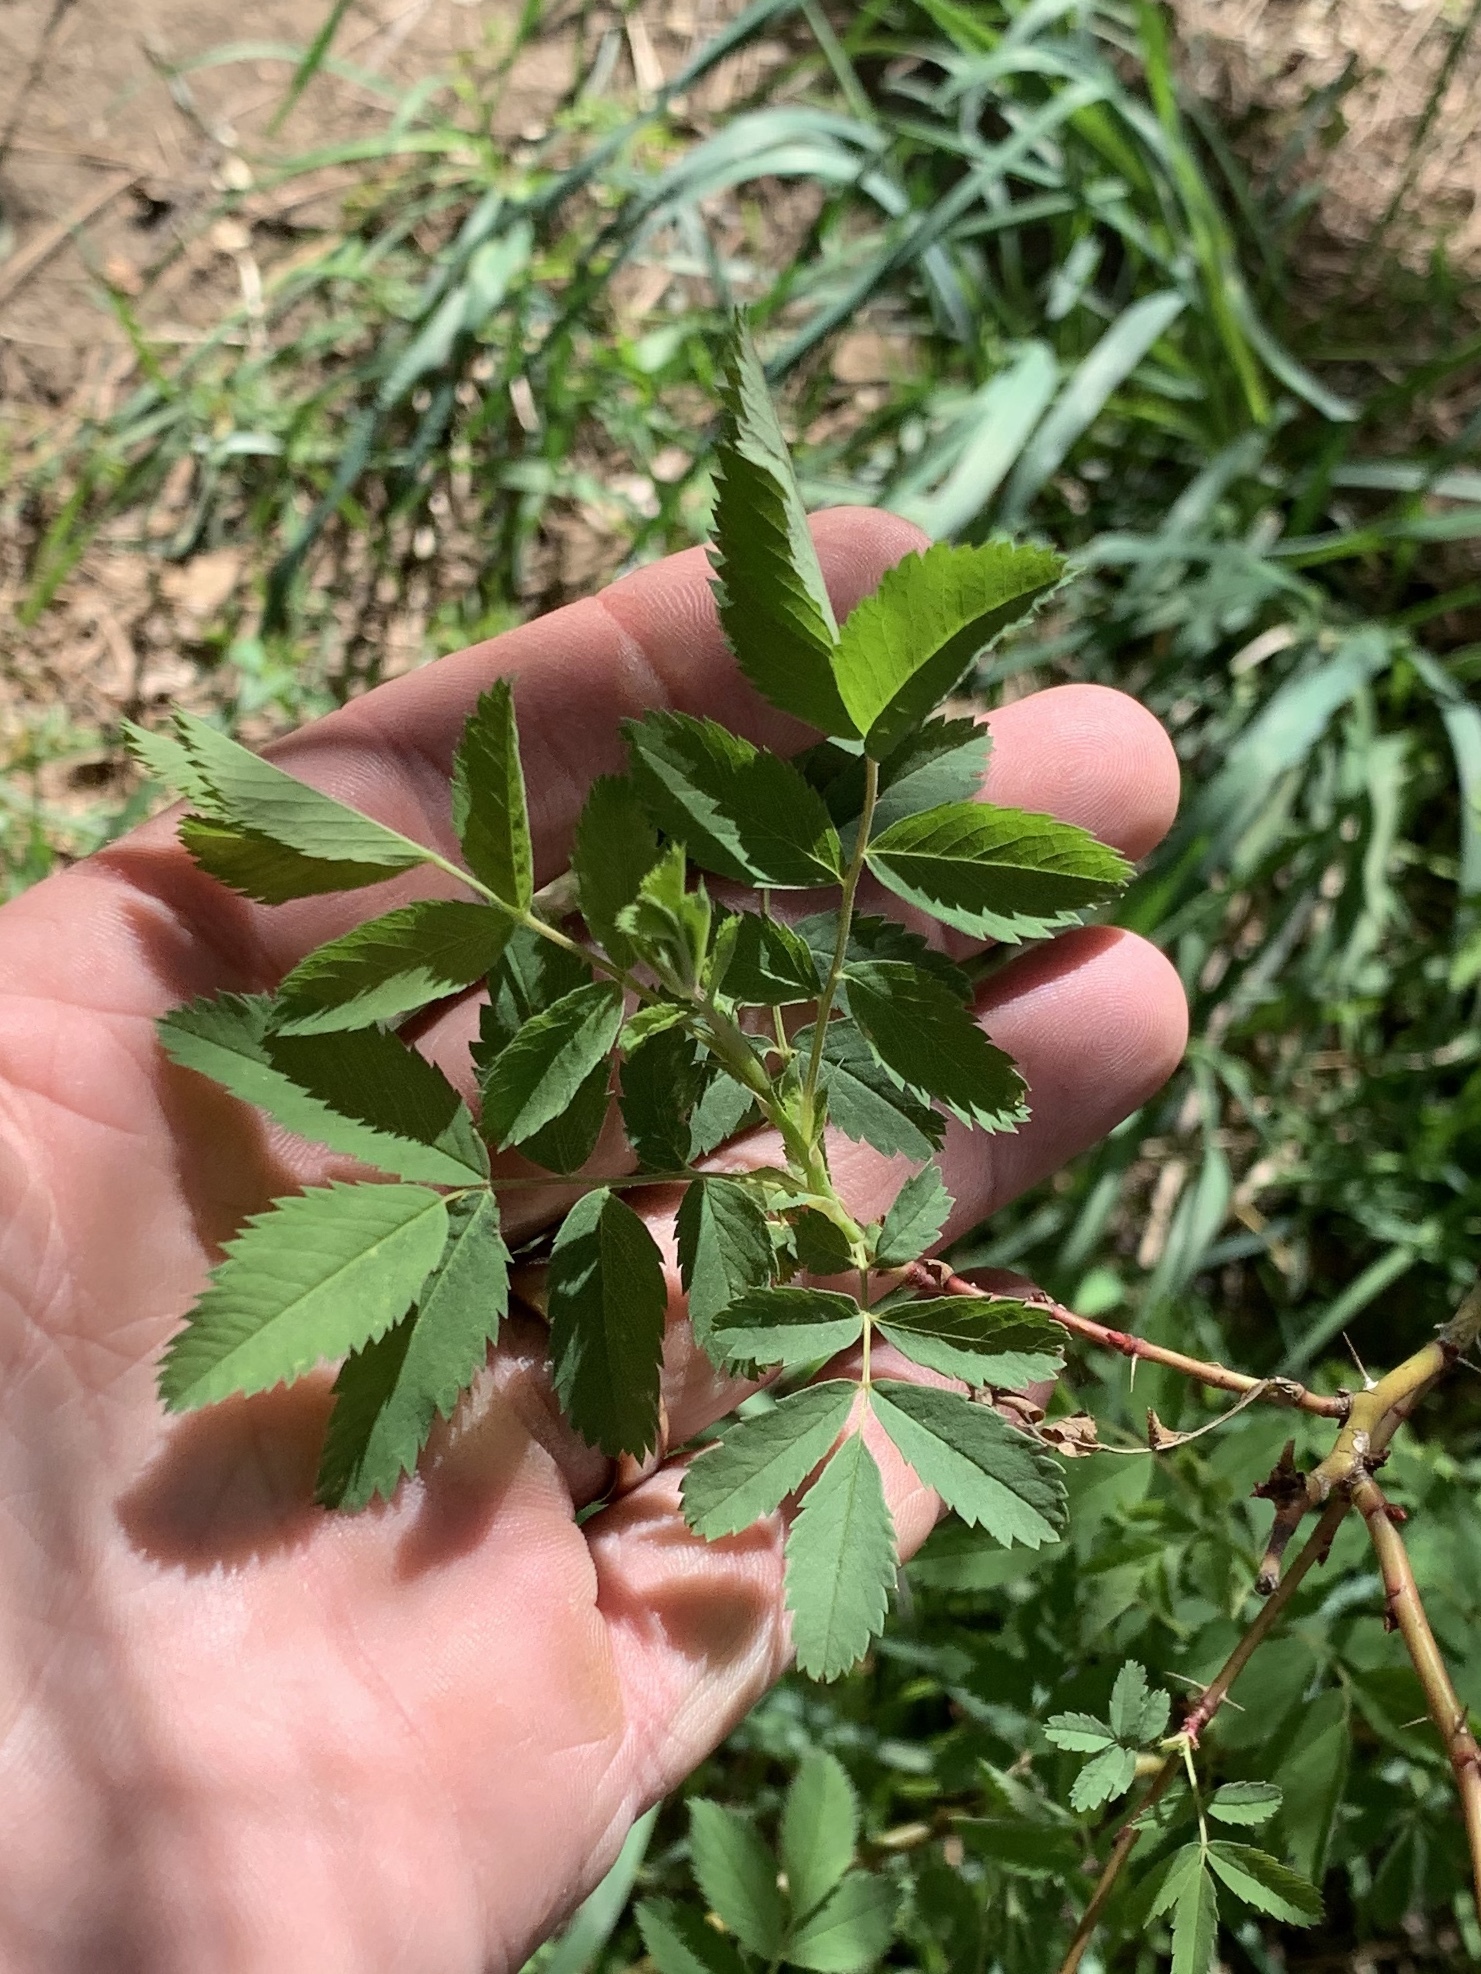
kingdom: Plantae
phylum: Tracheophyta
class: Magnoliopsida
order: Rosales
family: Rosaceae
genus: Rosa
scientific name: Rosa woodsii
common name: Woods's rose
